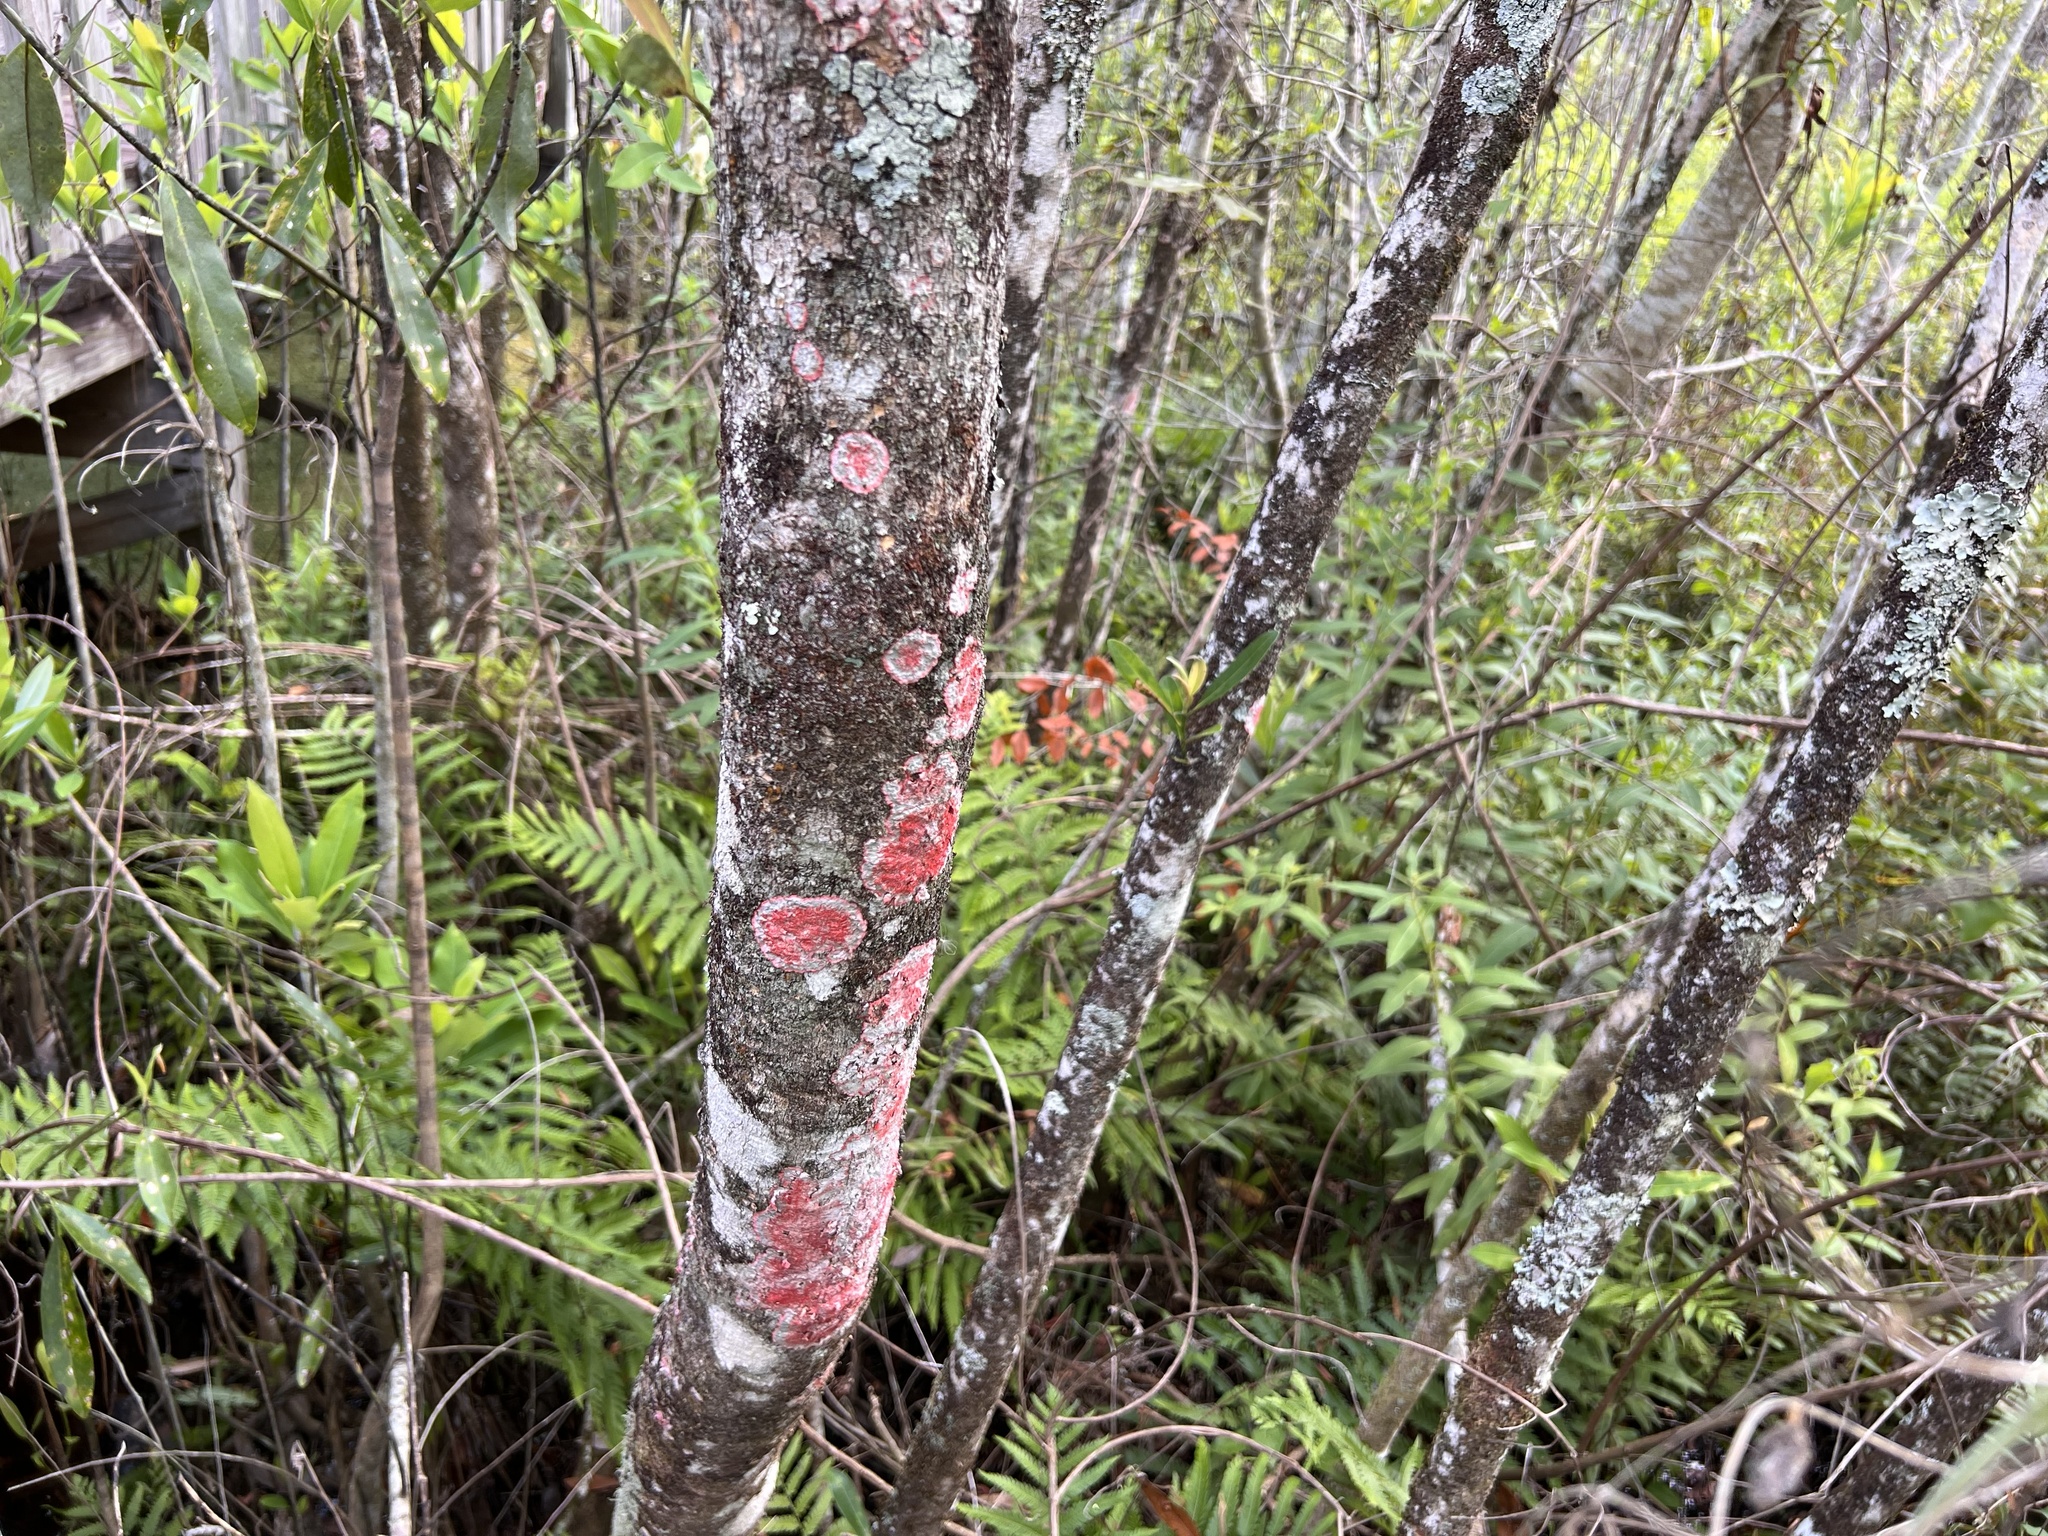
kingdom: Fungi
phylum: Ascomycota
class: Arthoniomycetes
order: Arthoniales
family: Arthoniaceae
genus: Herpothallon
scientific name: Herpothallon rubrocinctum
